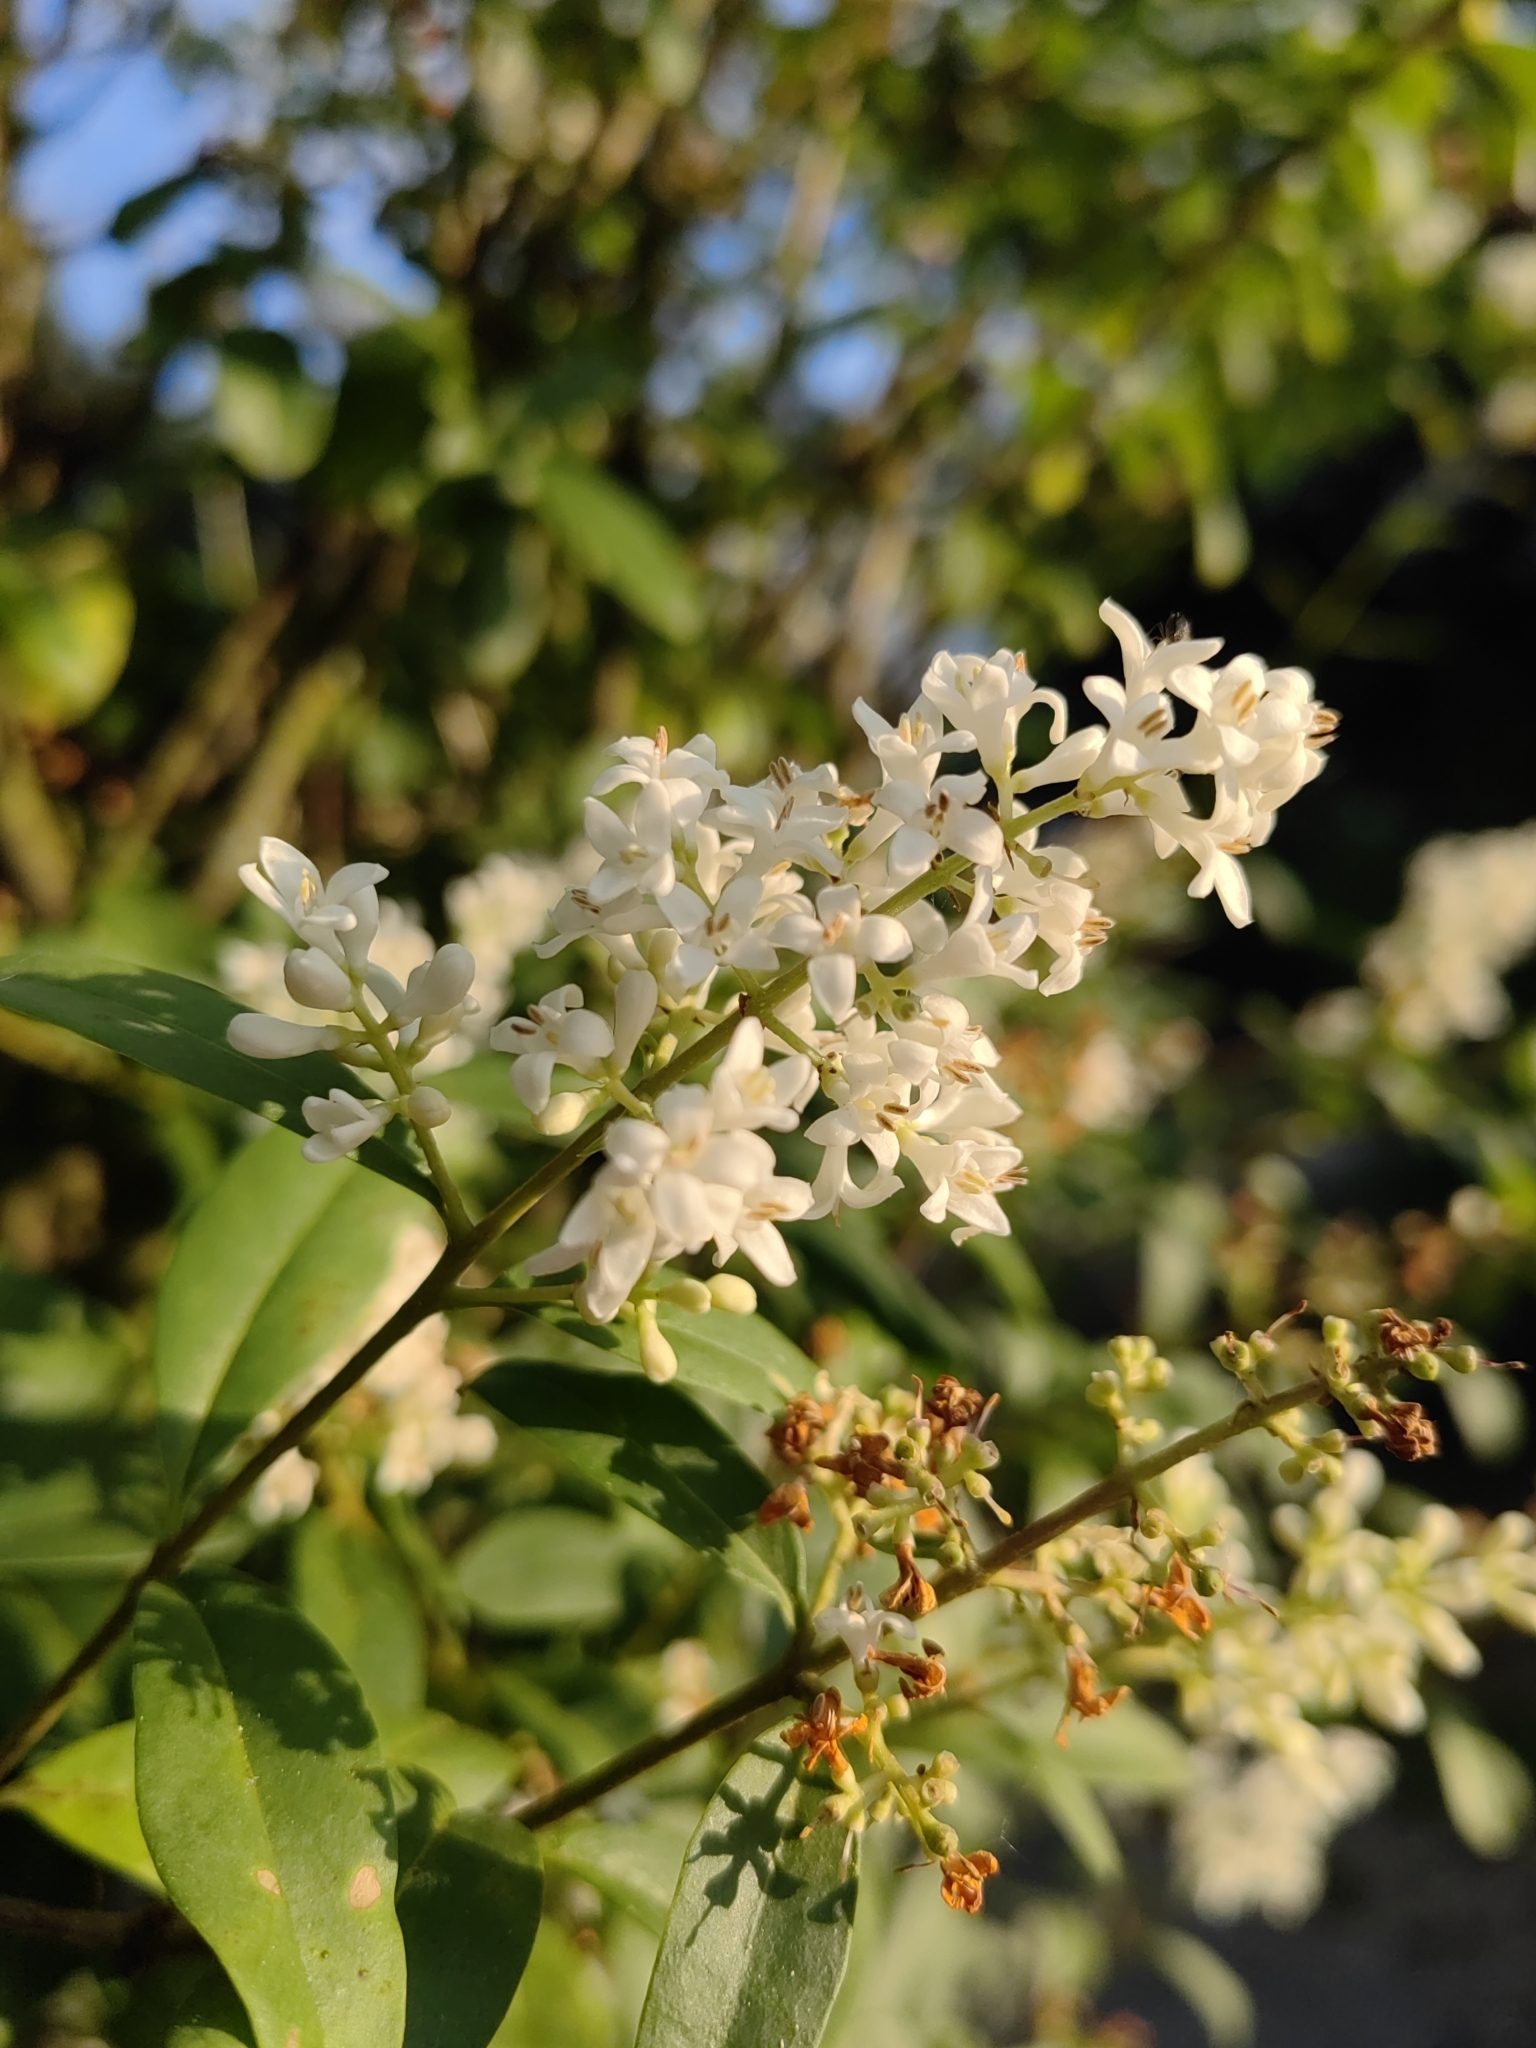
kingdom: Plantae
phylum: Tracheophyta
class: Magnoliopsida
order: Lamiales
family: Oleaceae
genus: Ligustrum
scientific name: Ligustrum vulgare
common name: Wild privet
